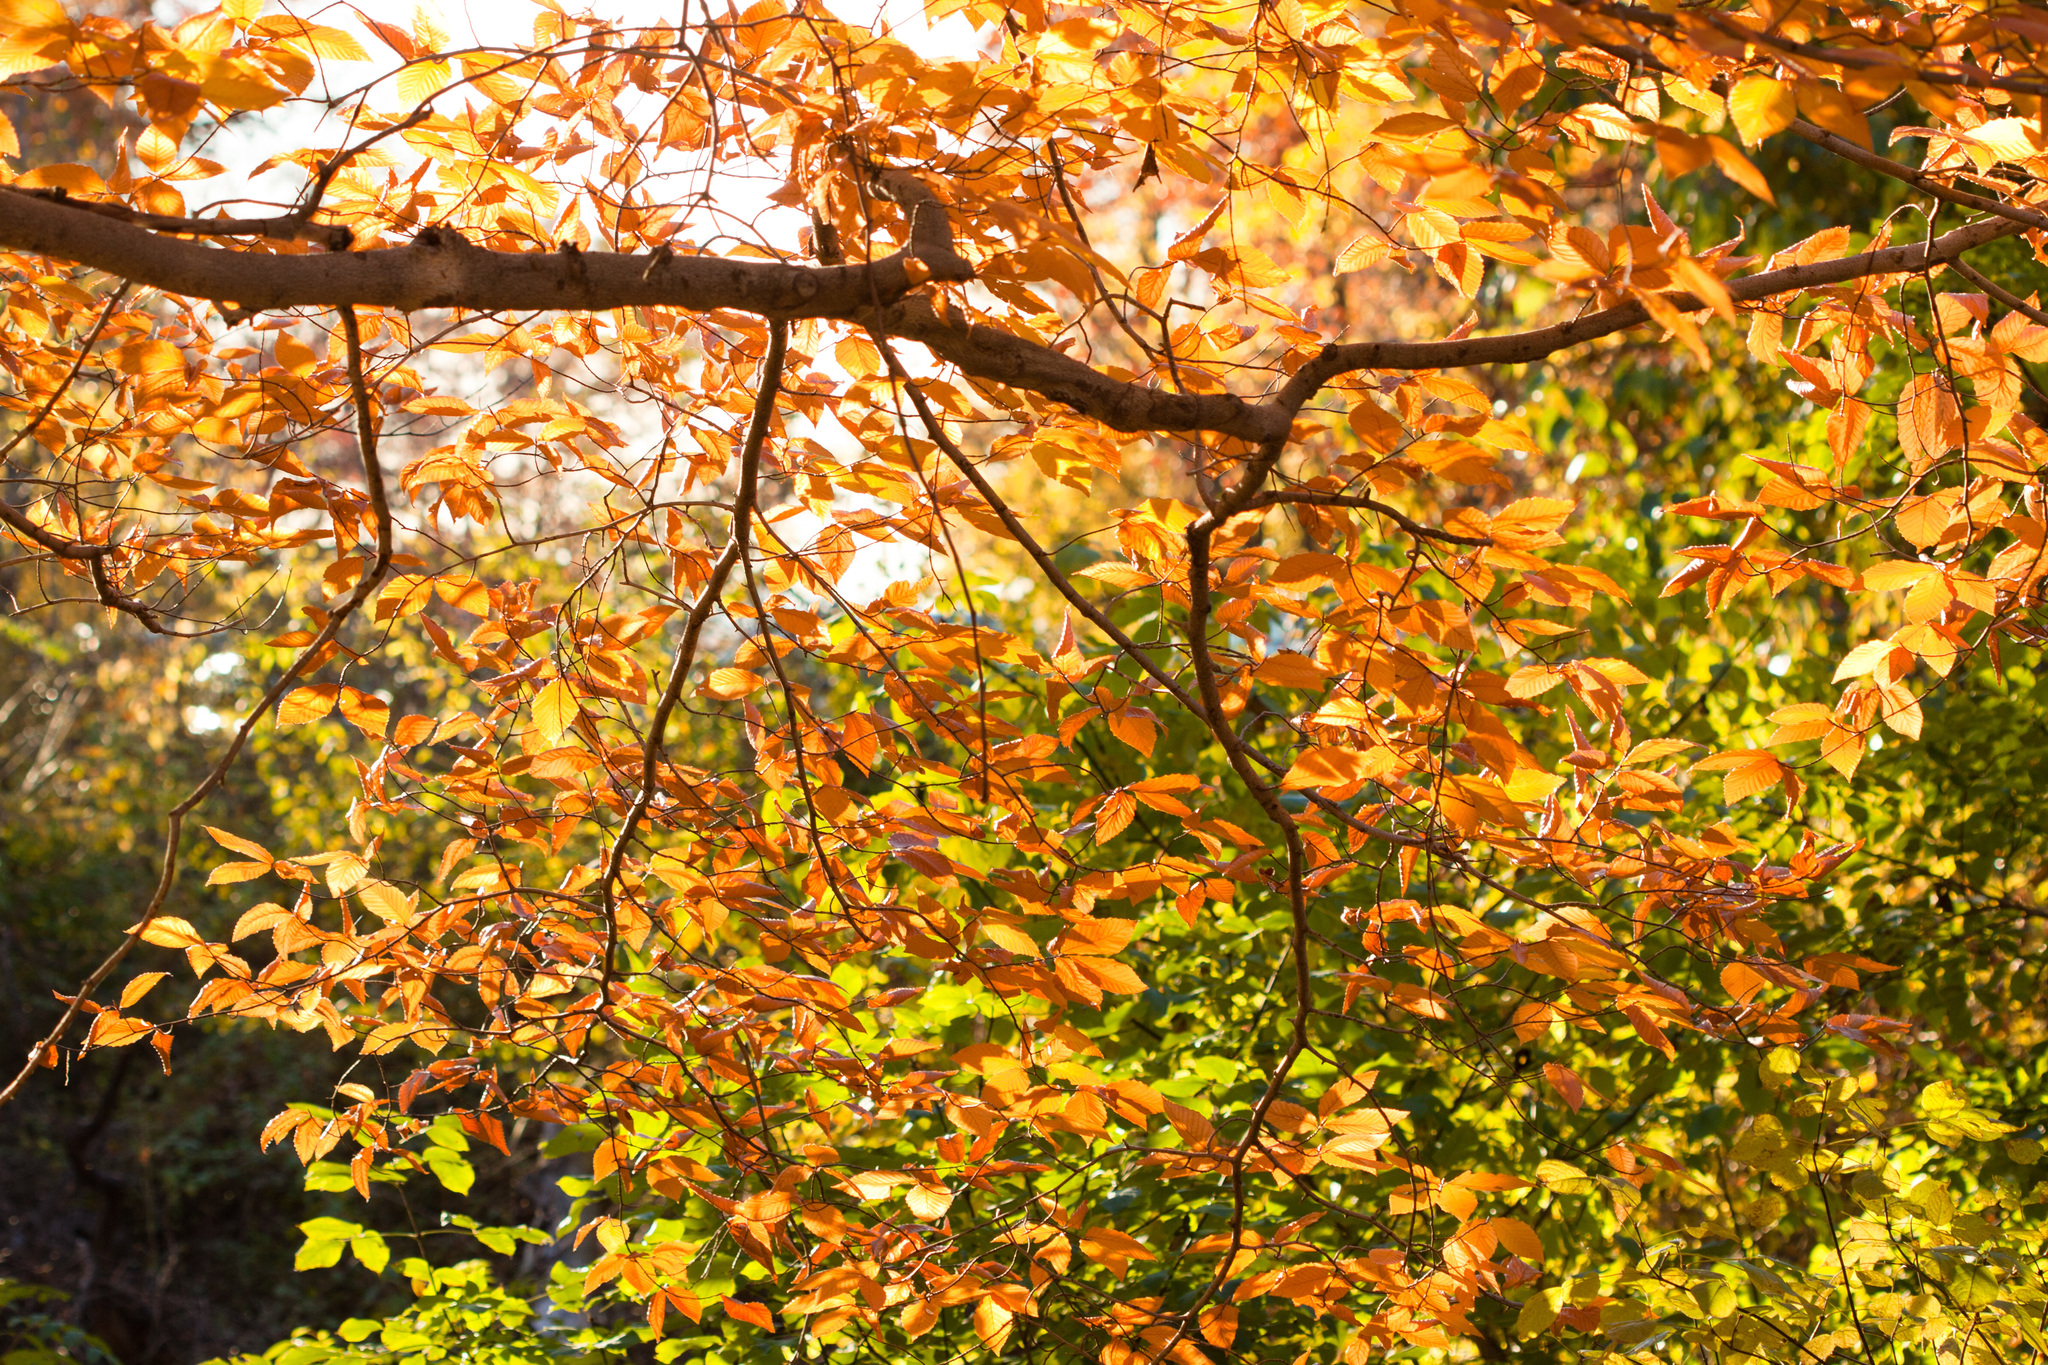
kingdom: Plantae
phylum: Tracheophyta
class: Magnoliopsida
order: Fagales
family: Fagaceae
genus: Fagus
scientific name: Fagus grandifolia
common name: American beech
